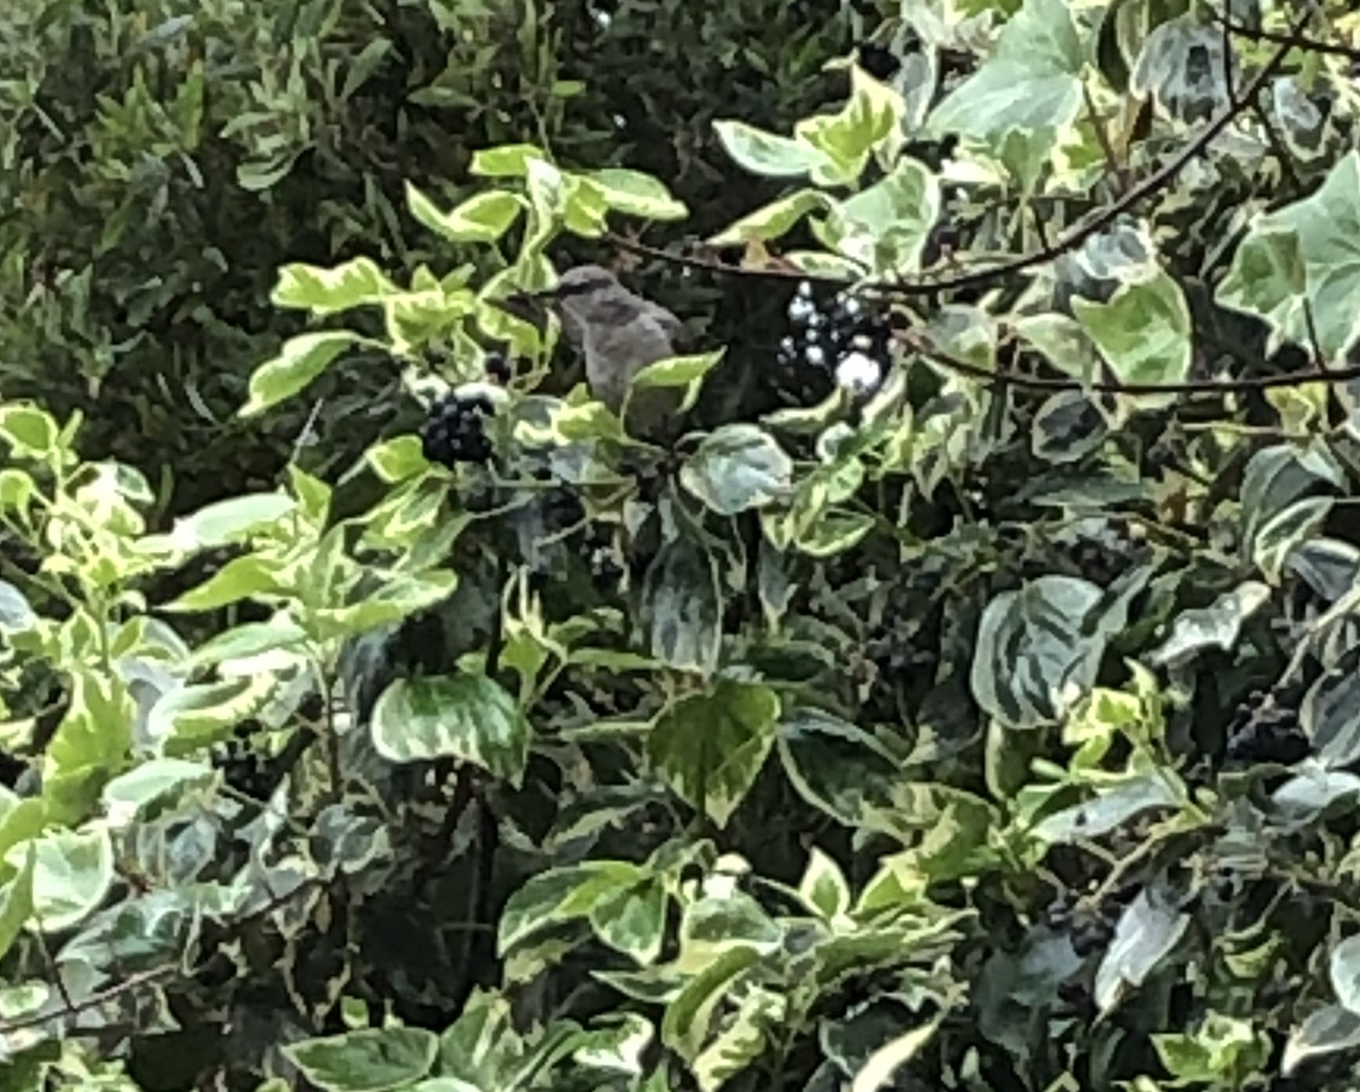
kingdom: Animalia
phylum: Chordata
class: Aves
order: Passeriformes
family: Mimidae
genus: Mimus
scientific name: Mimus polyglottos
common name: Northern mockingbird
